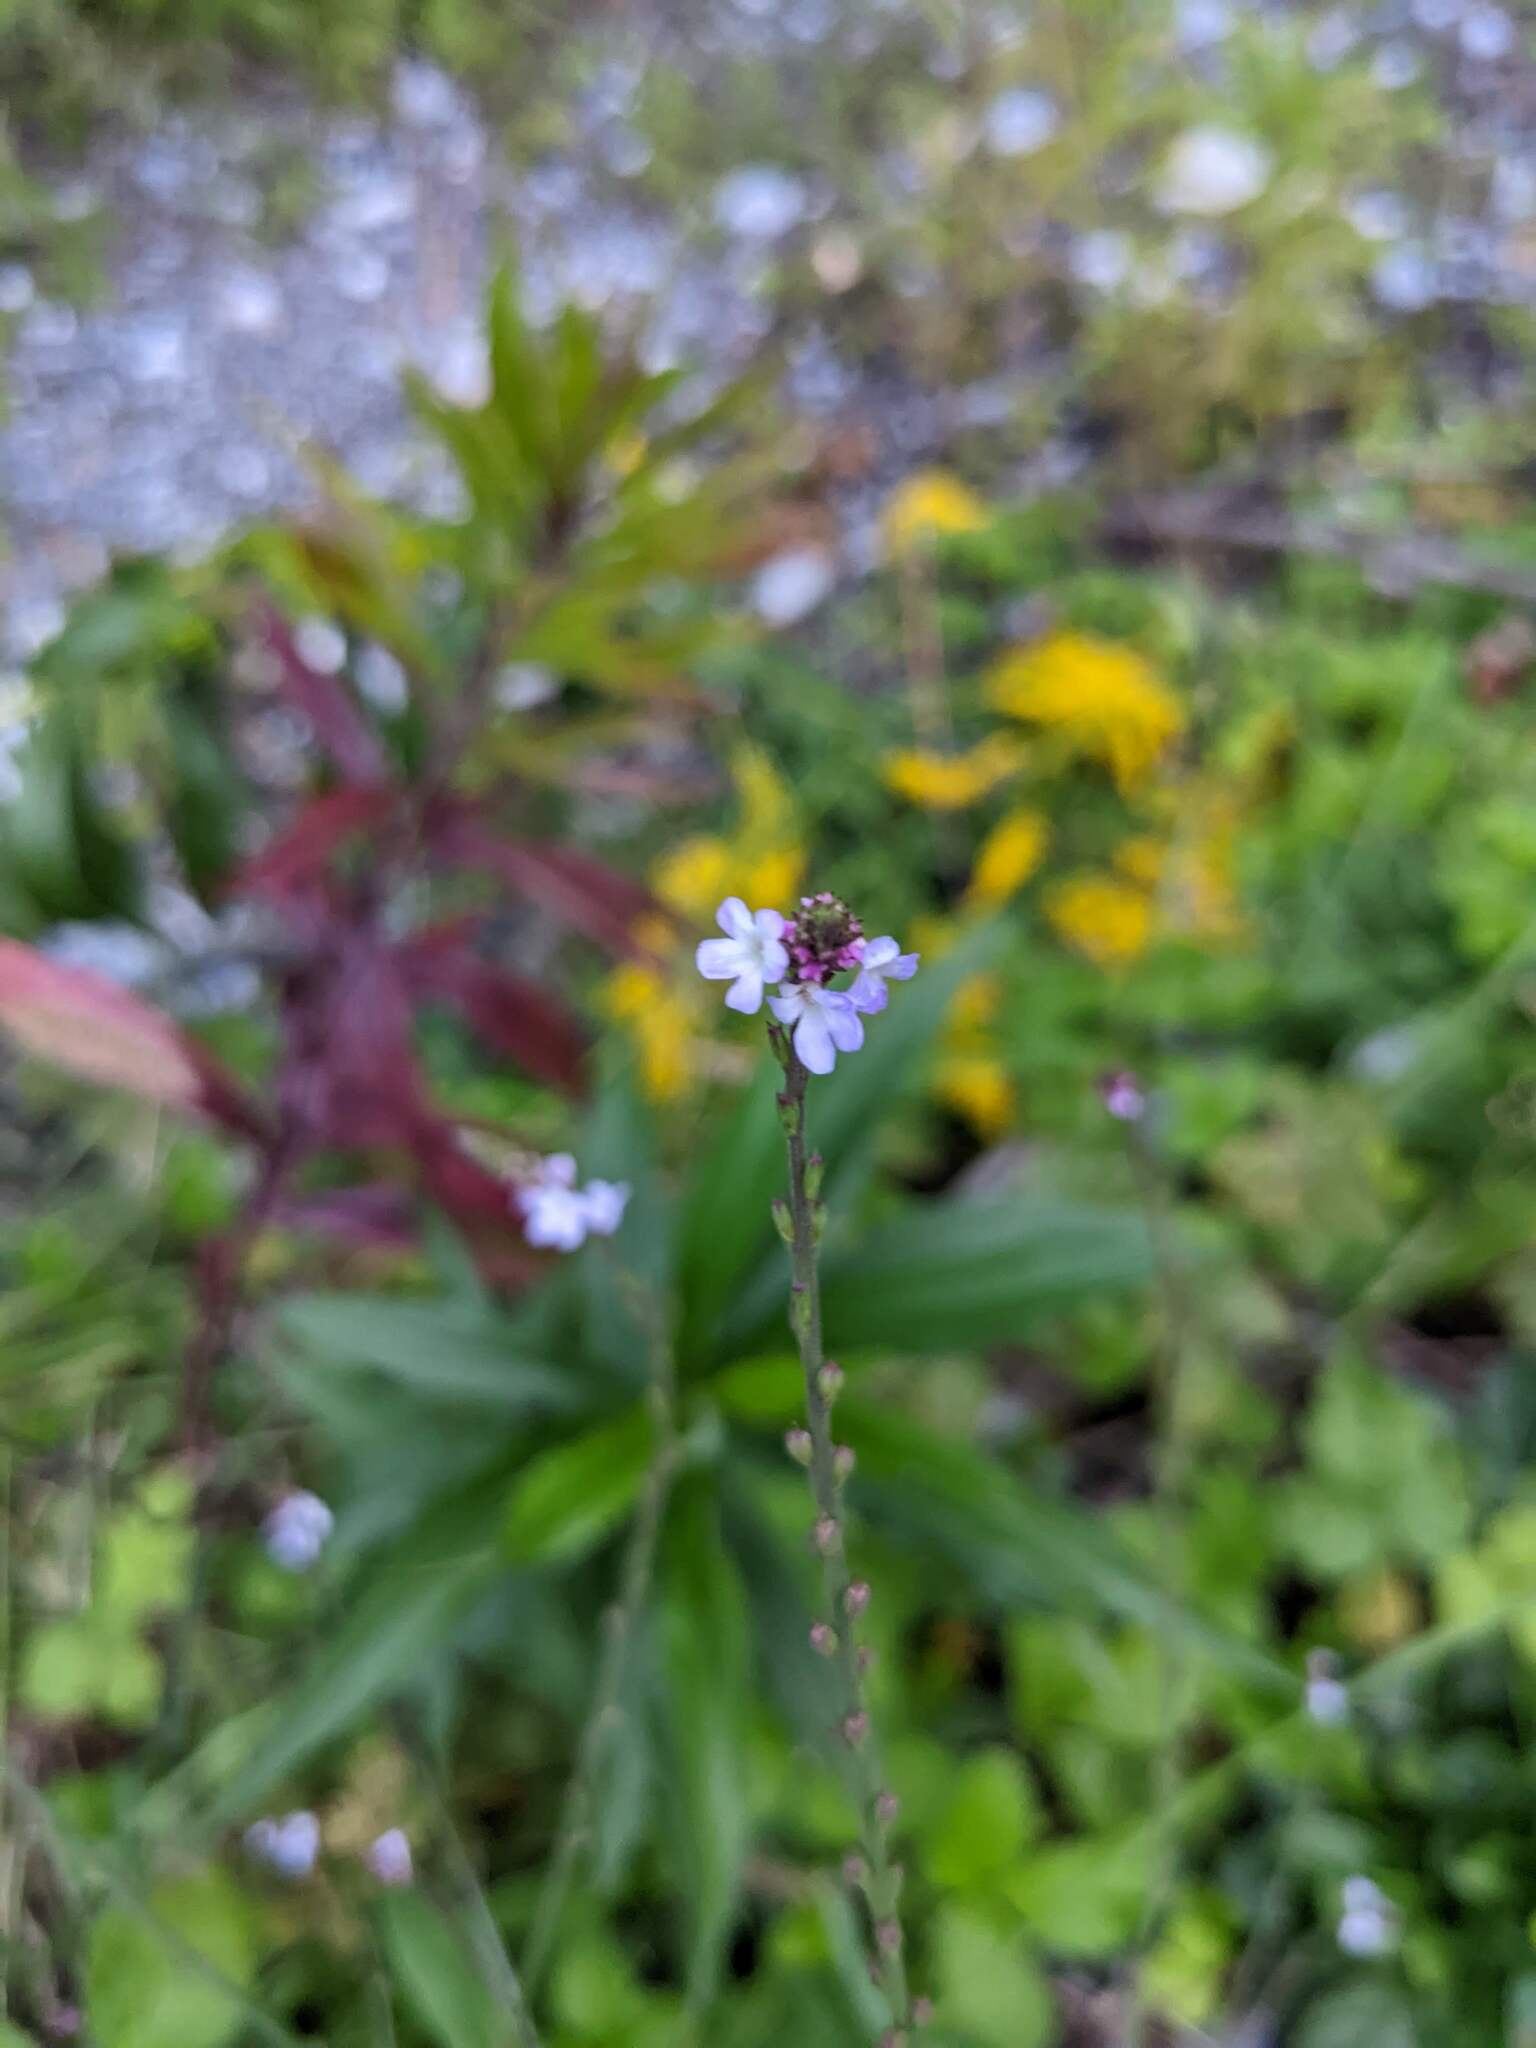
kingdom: Plantae
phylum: Tracheophyta
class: Magnoliopsida
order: Lamiales
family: Verbenaceae
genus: Verbena
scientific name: Verbena officinalis
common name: Vervain
